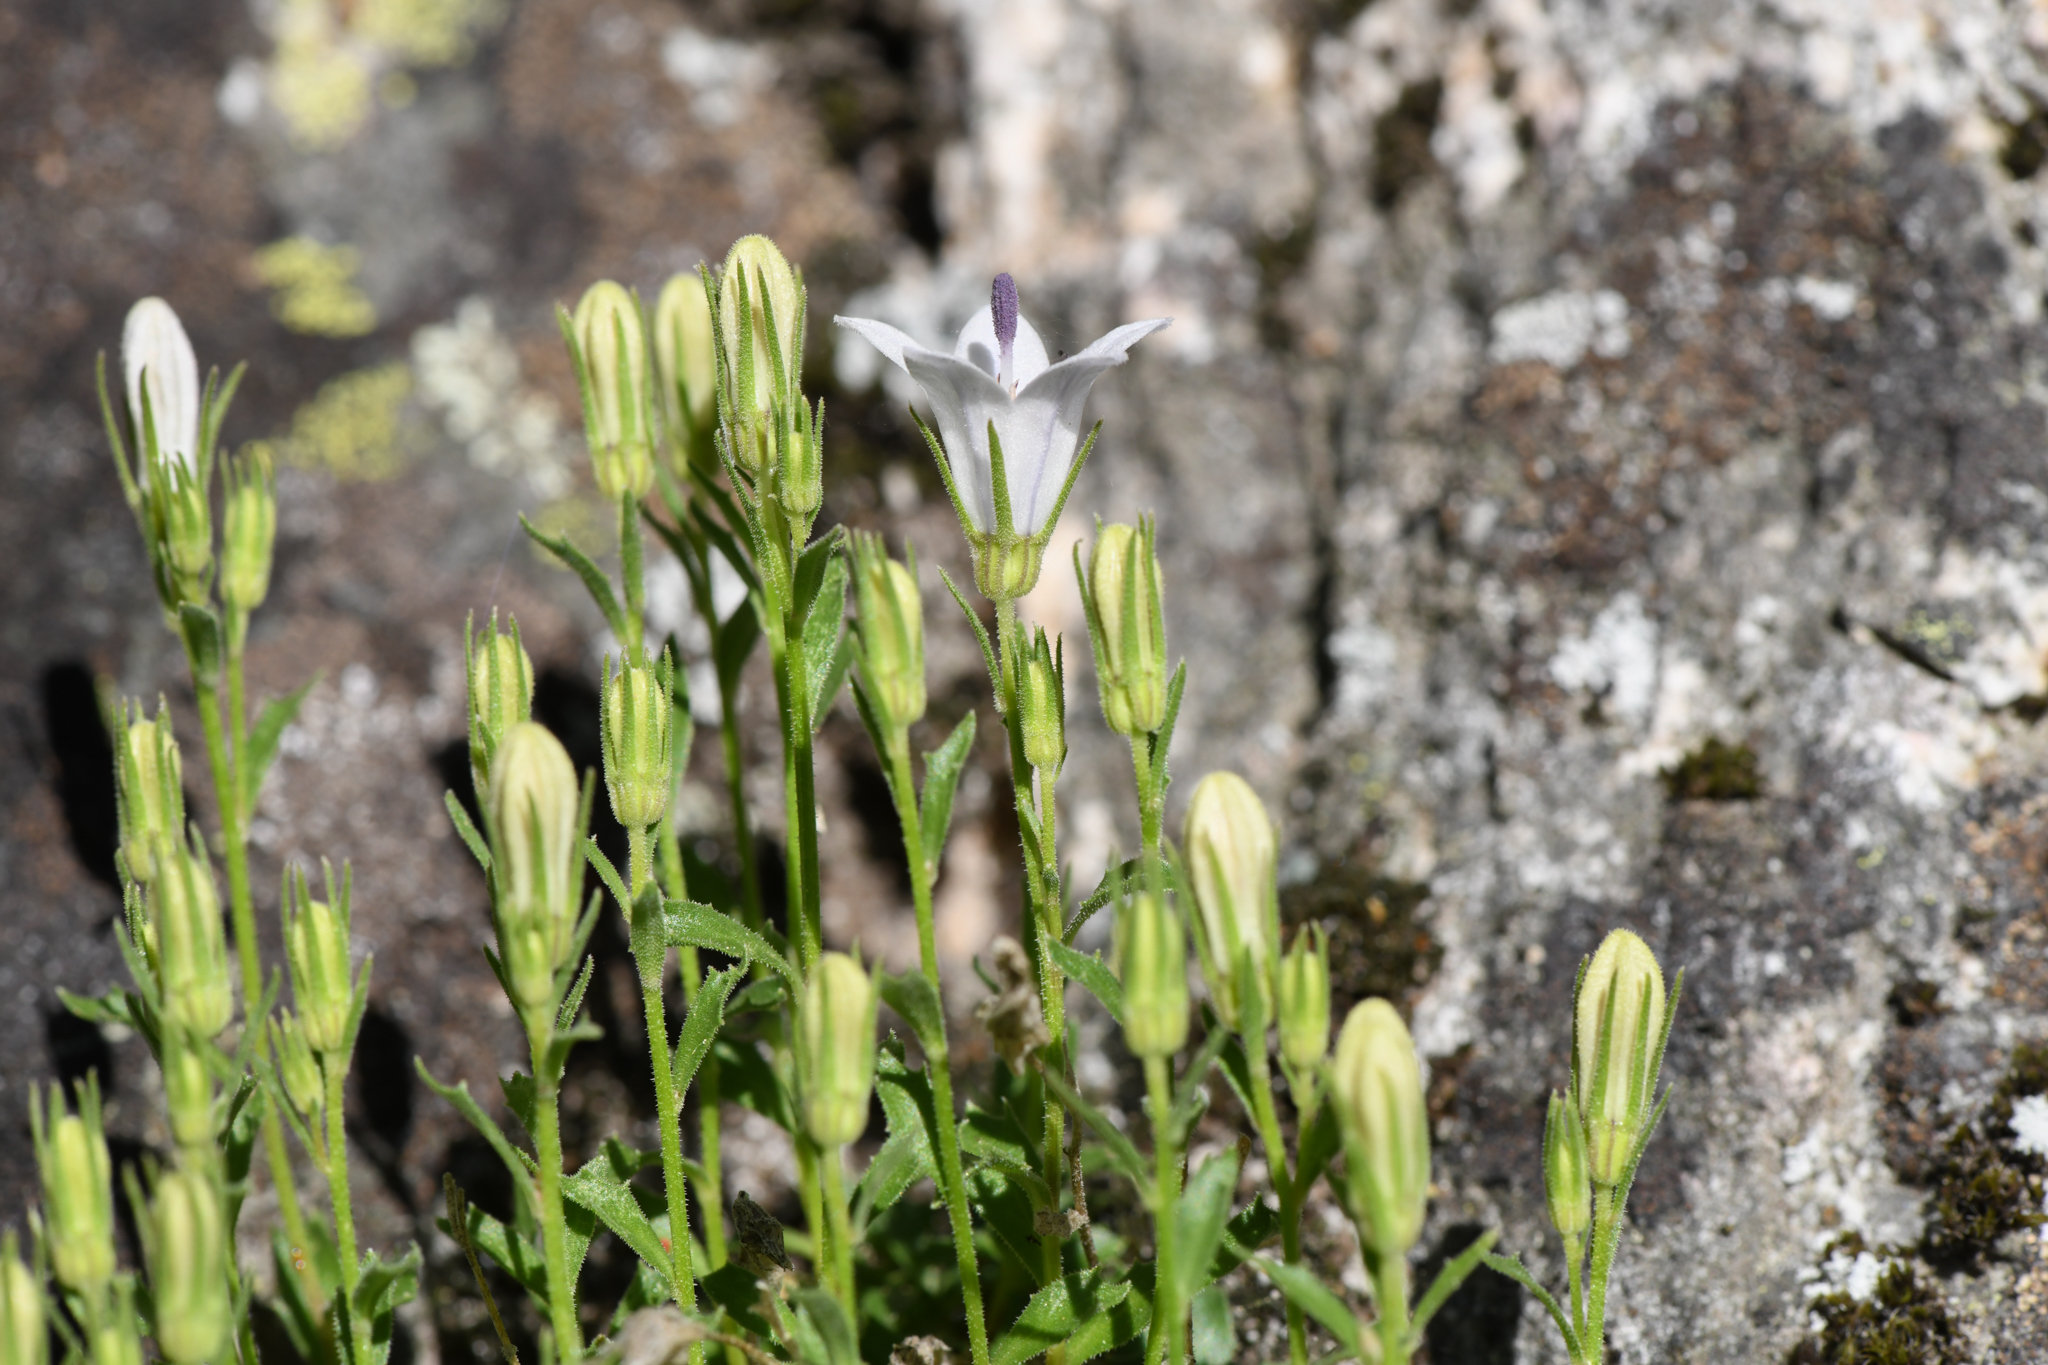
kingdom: Plantae
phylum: Tracheophyta
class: Magnoliopsida
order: Asterales
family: Campanulaceae
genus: Campanula
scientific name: Campanula shetleri
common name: Castle crag harebell
